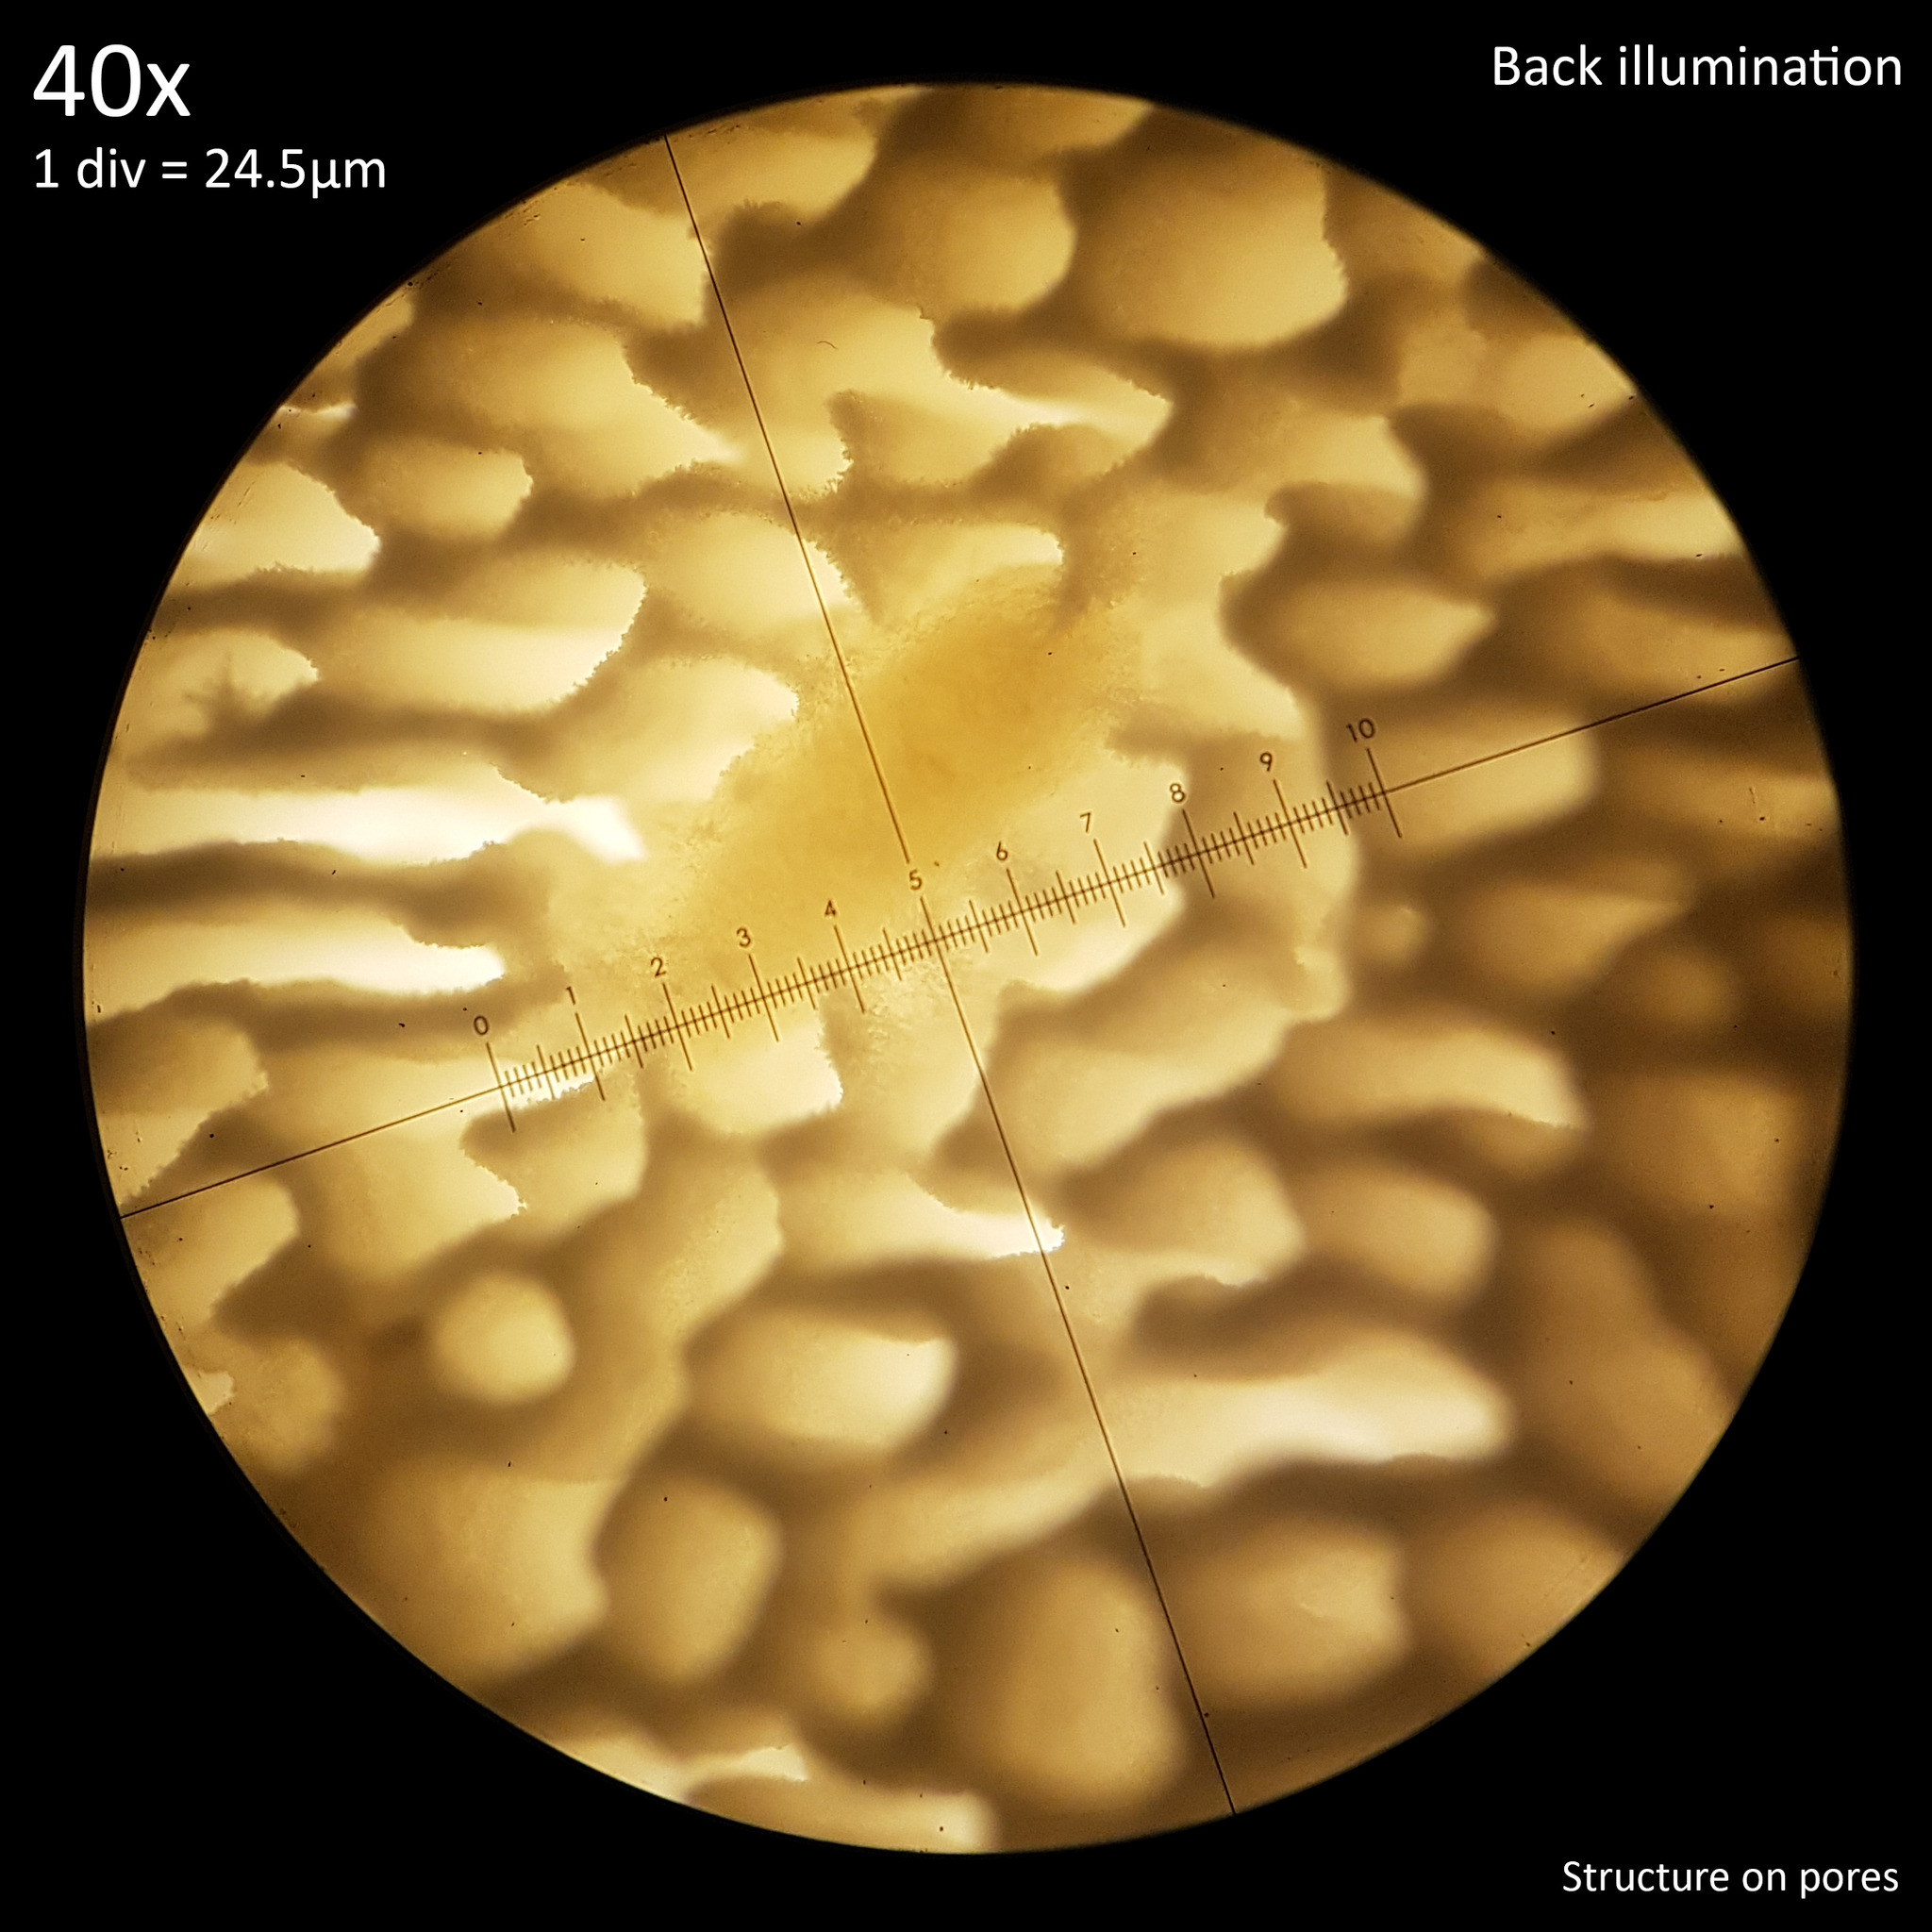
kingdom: Fungi
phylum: Basidiomycota
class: Agaricomycetes
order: Polyporales
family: Grifolaceae
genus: Grifola
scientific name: Grifola frondosa
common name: Hen of the woods
